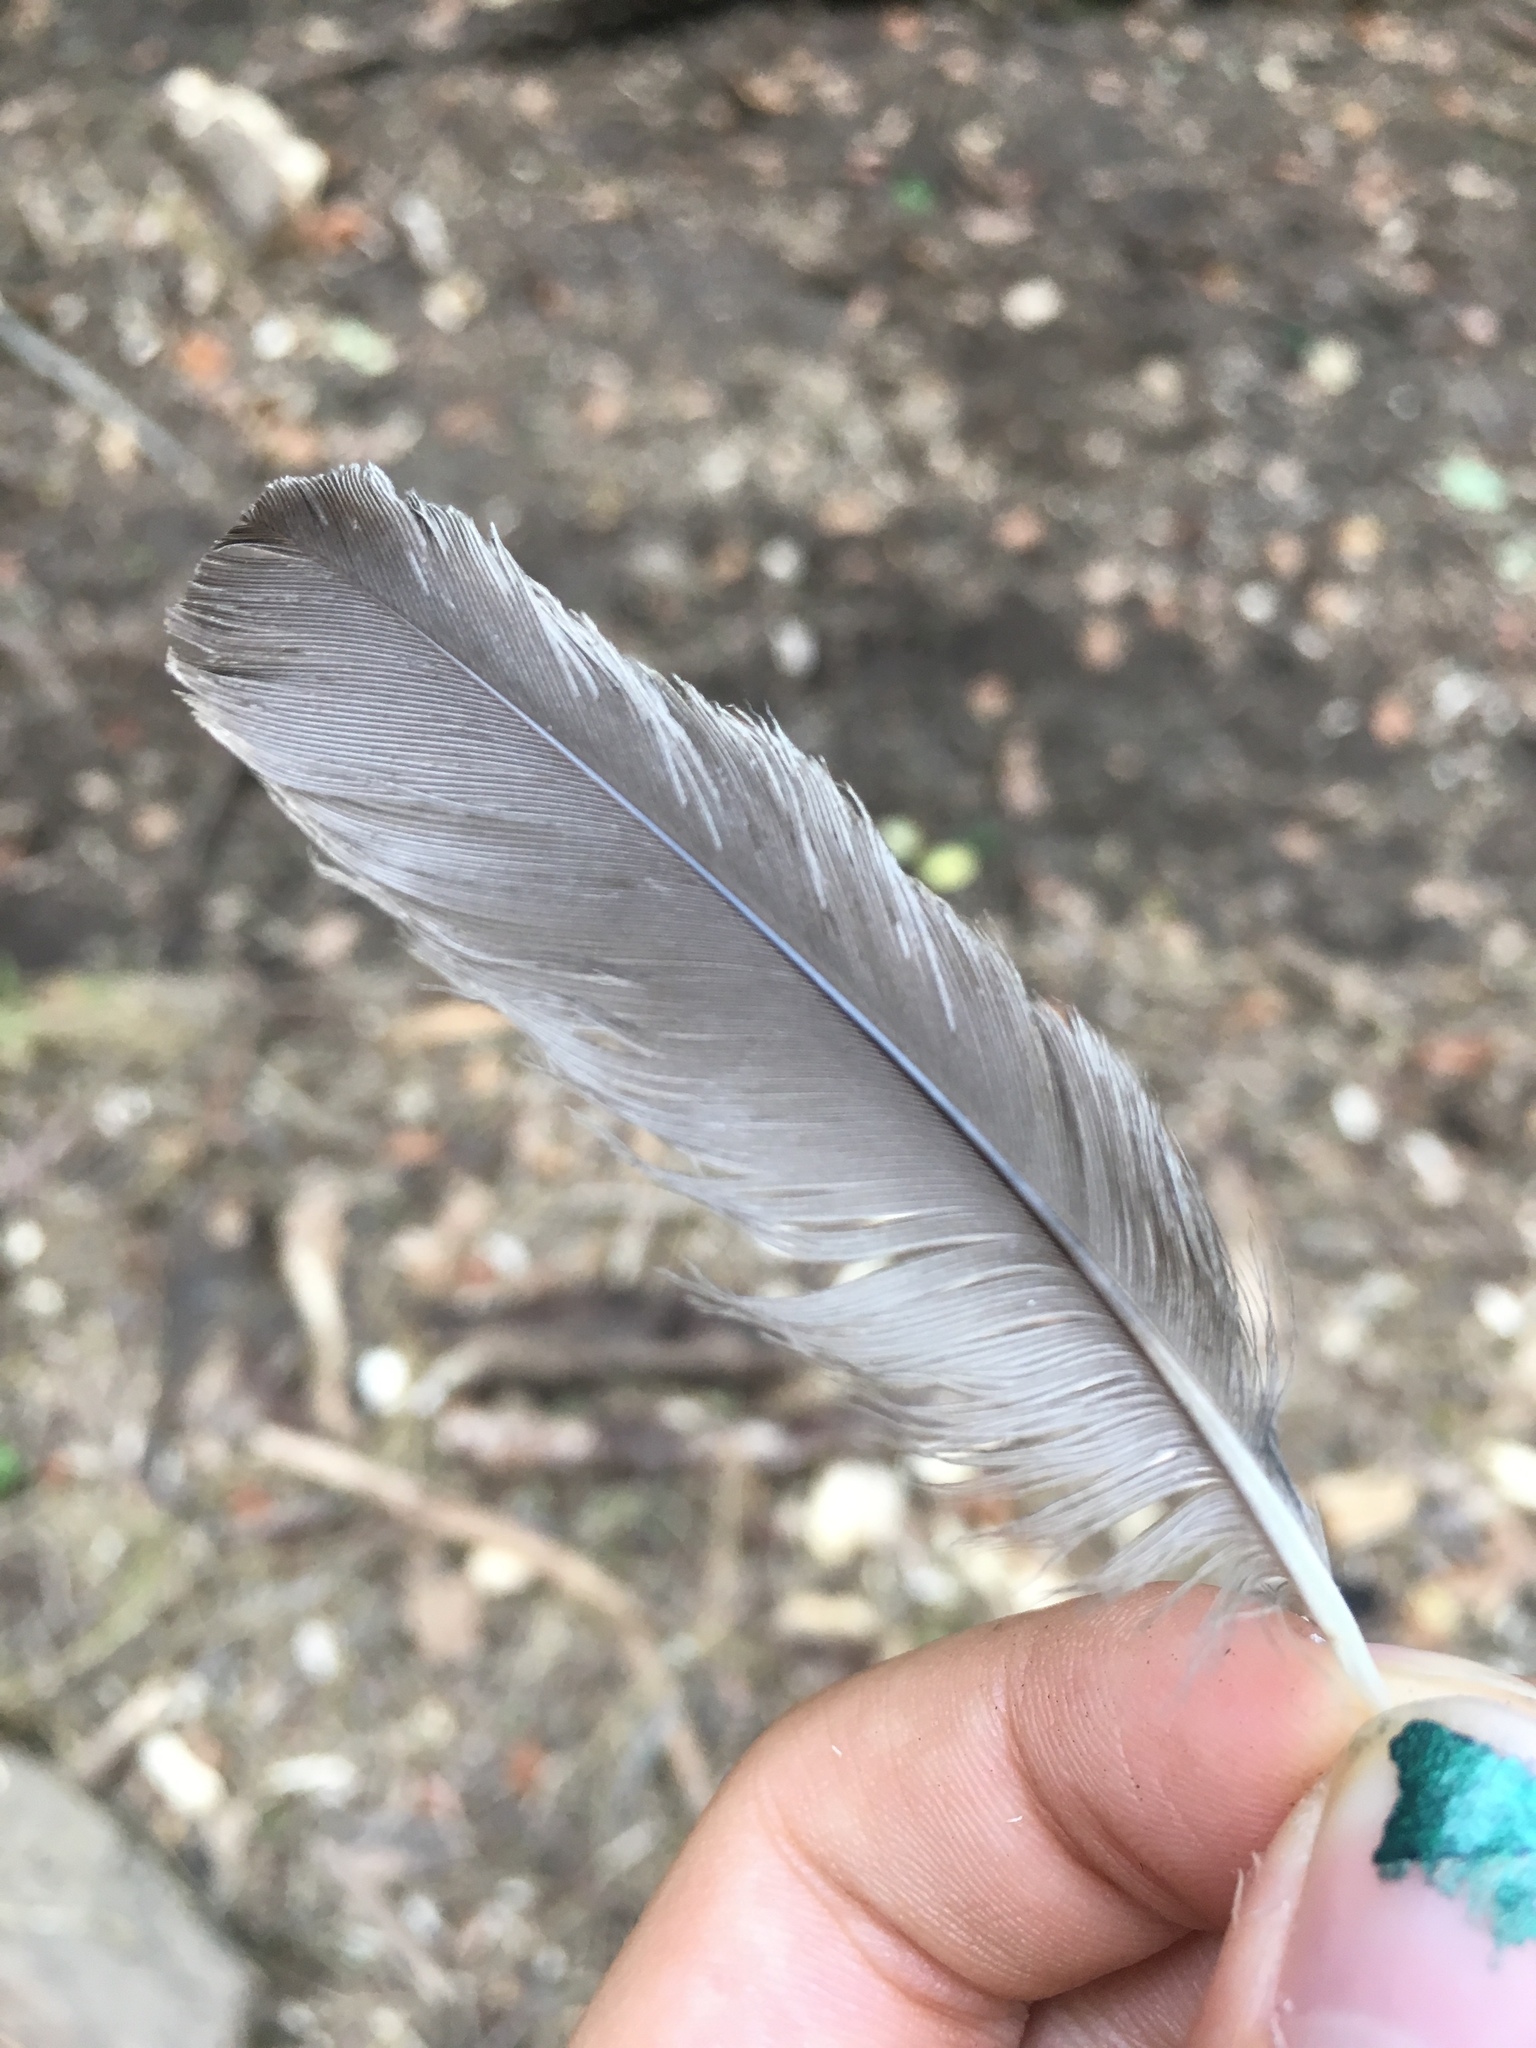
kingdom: Animalia
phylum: Chordata
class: Aves
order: Passeriformes
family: Turdidae
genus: Turdus
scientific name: Turdus migratorius
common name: American robin
